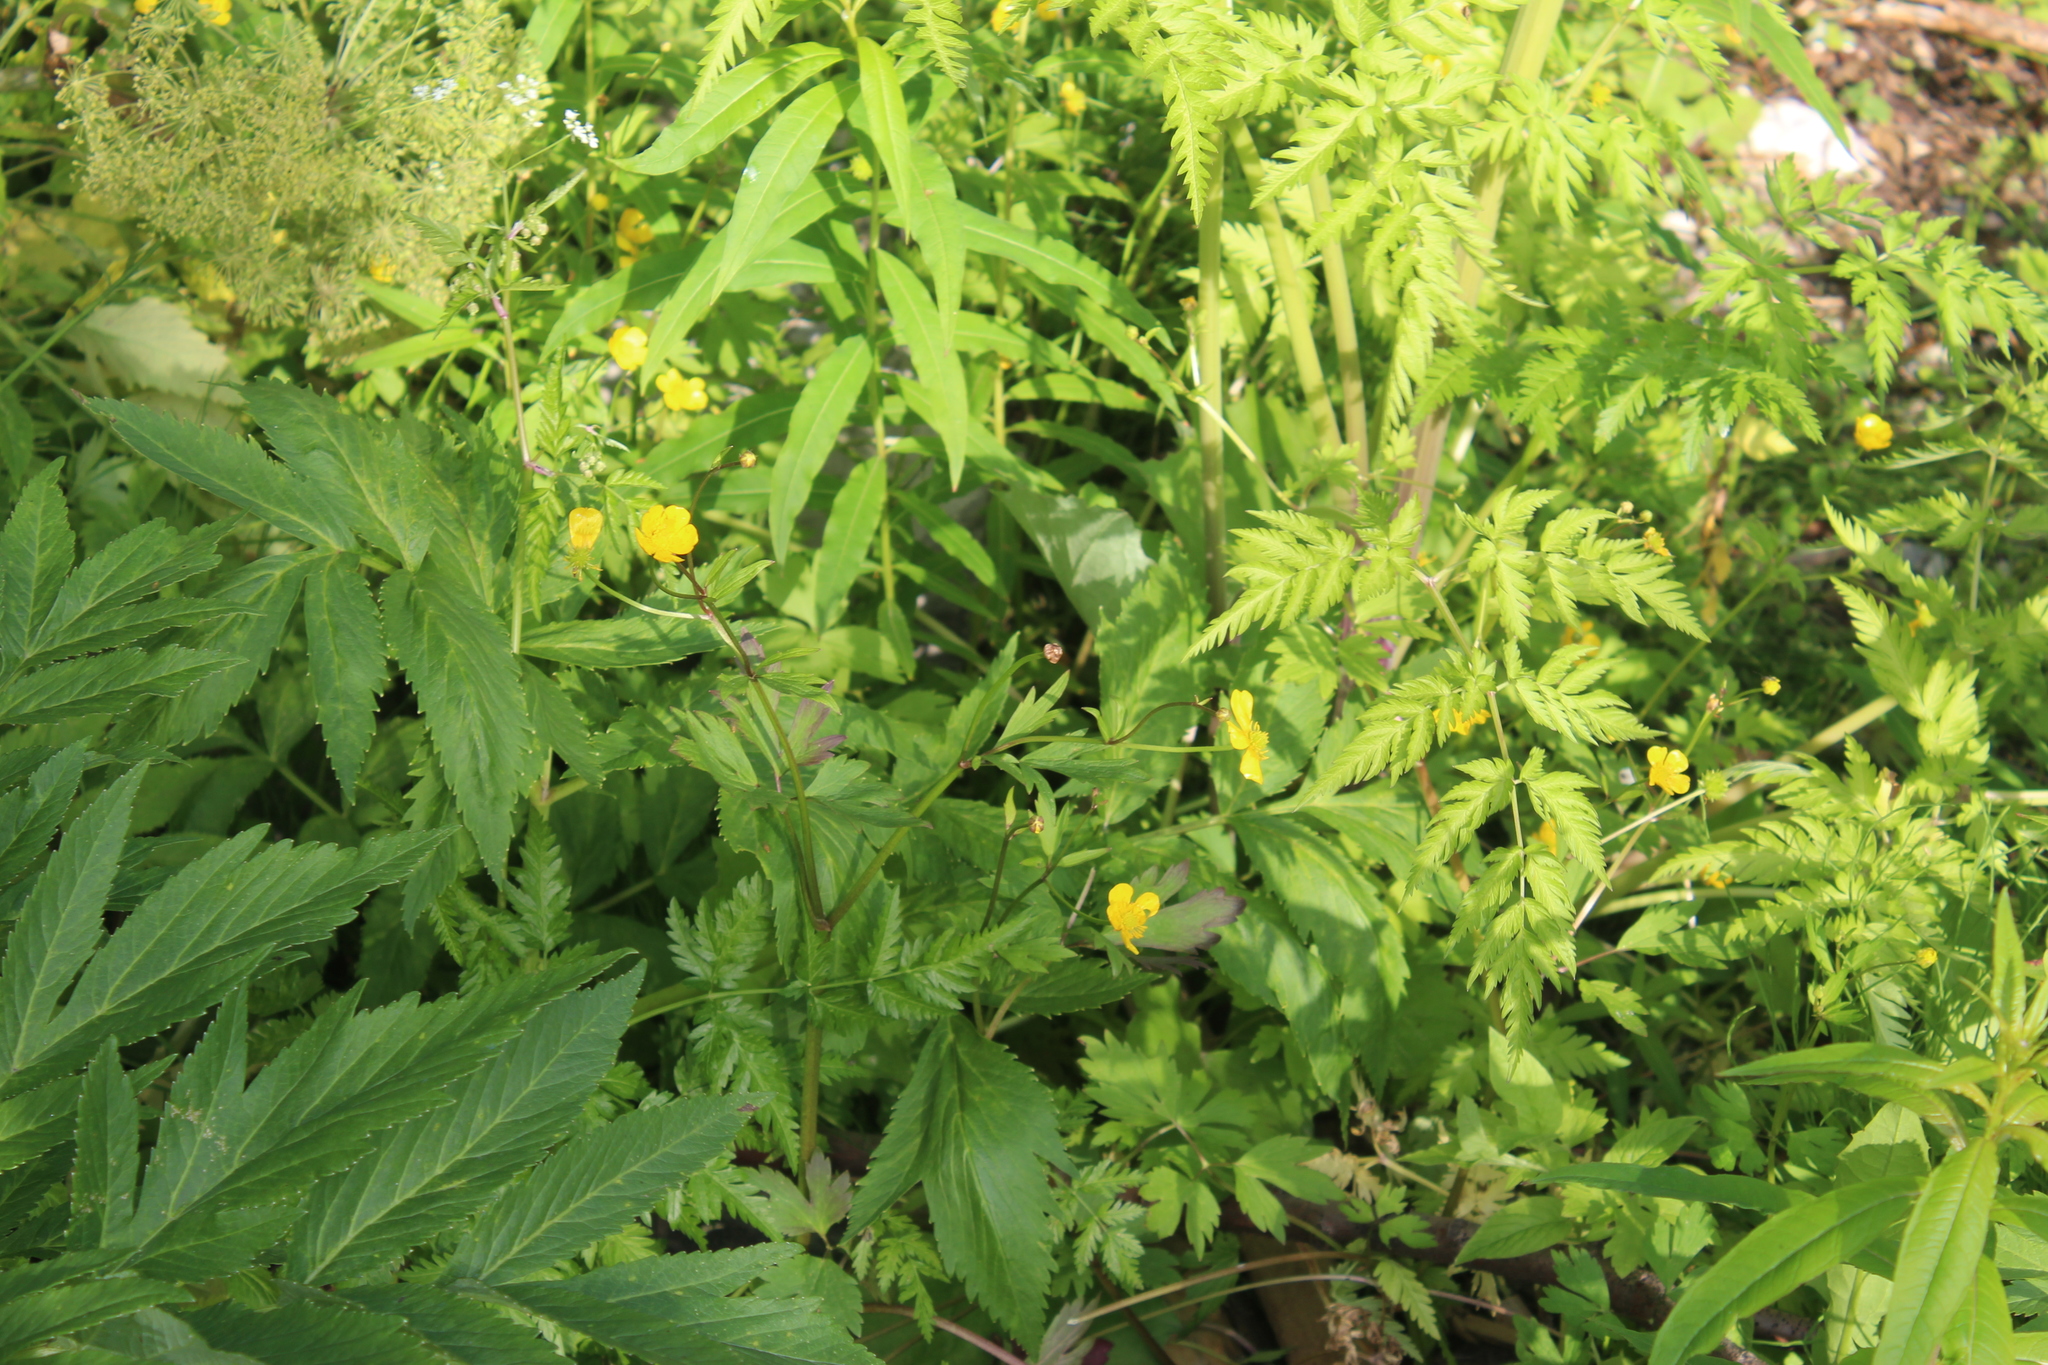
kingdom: Plantae
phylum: Tracheophyta
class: Magnoliopsida
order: Ranunculales
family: Ranunculaceae
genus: Ranunculus
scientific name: Ranunculus repens
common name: Creeping buttercup
